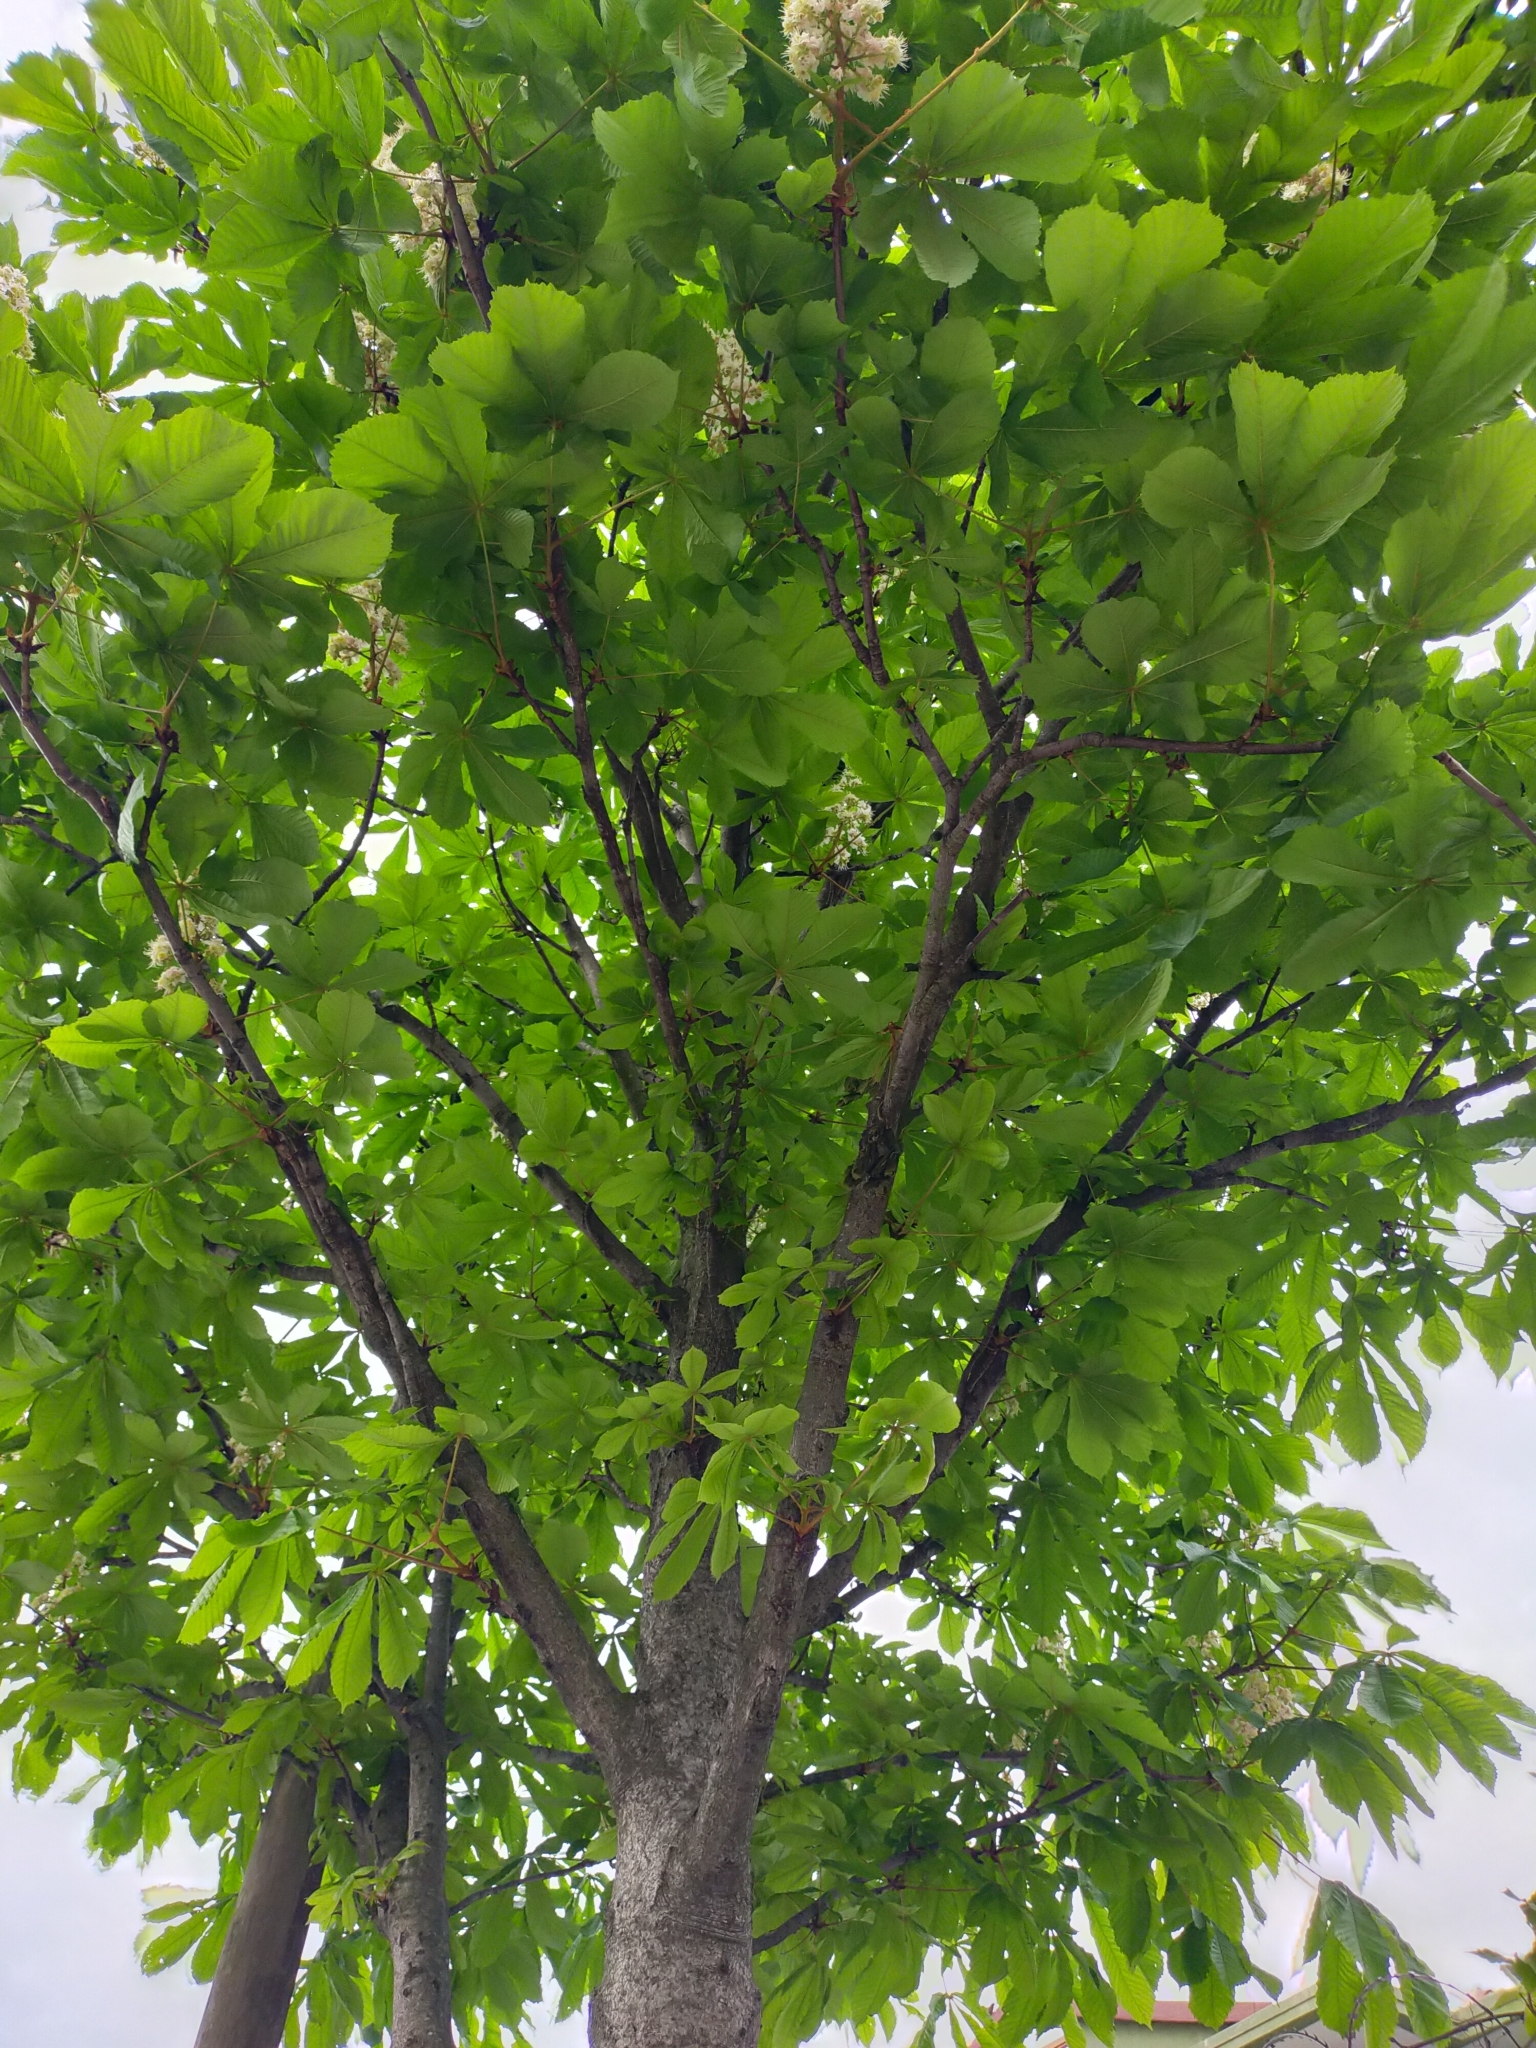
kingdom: Plantae
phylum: Tracheophyta
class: Magnoliopsida
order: Sapindales
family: Sapindaceae
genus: Aesculus
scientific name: Aesculus hippocastanum
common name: Horse-chestnut
